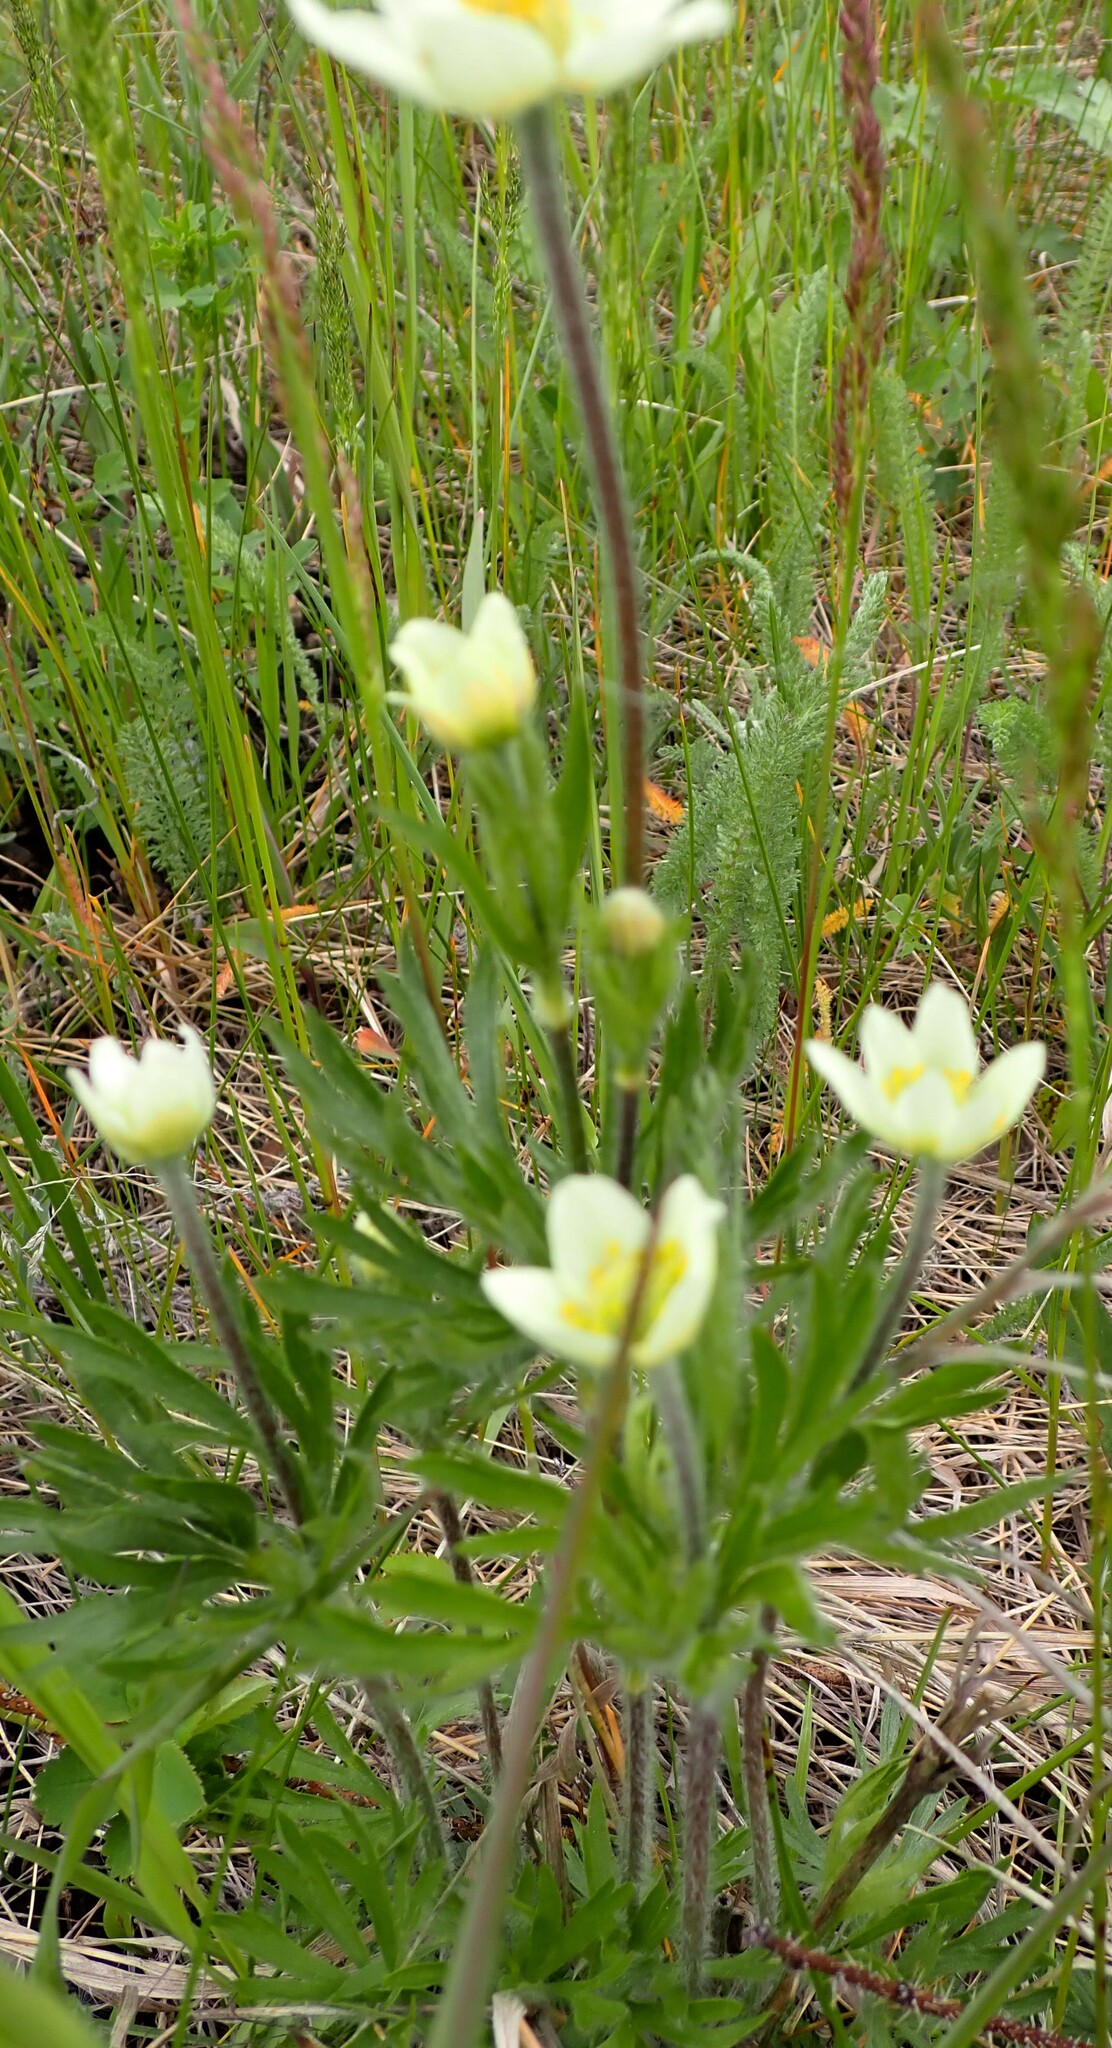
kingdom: Plantae
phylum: Tracheophyta
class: Magnoliopsida
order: Ranunculales
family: Ranunculaceae
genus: Anemone
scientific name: Anemone multifida
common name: Bird's-foot anemone
